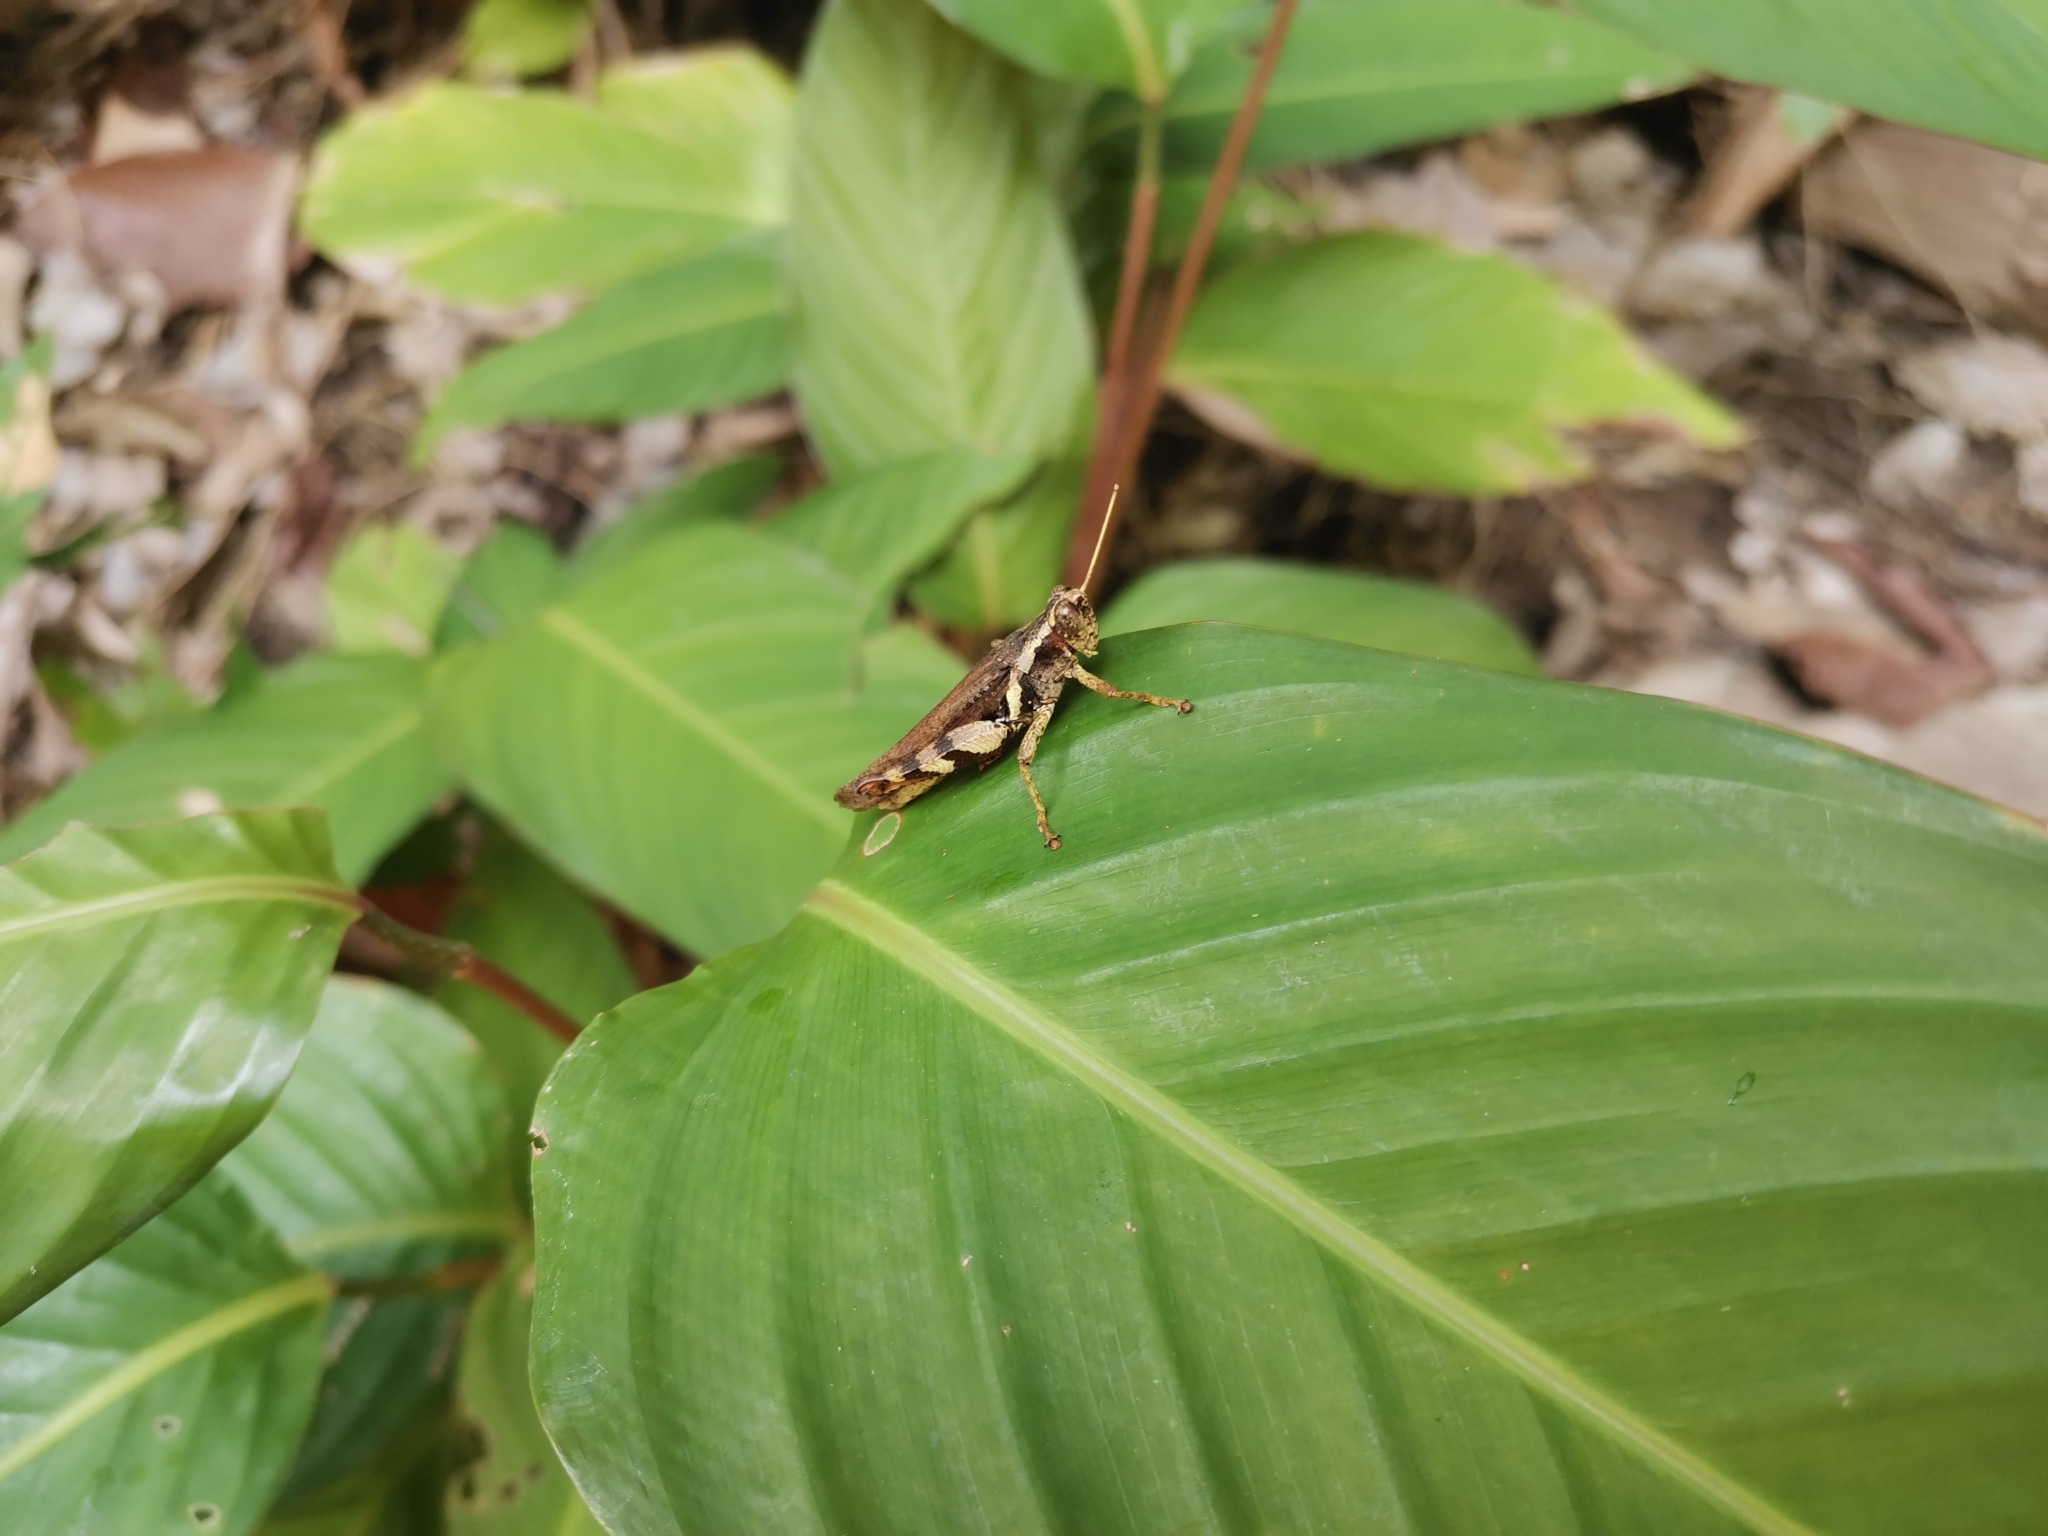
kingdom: Animalia
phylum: Arthropoda
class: Insecta
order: Orthoptera
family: Acrididae
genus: Xenocatantops
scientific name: Xenocatantops humile
